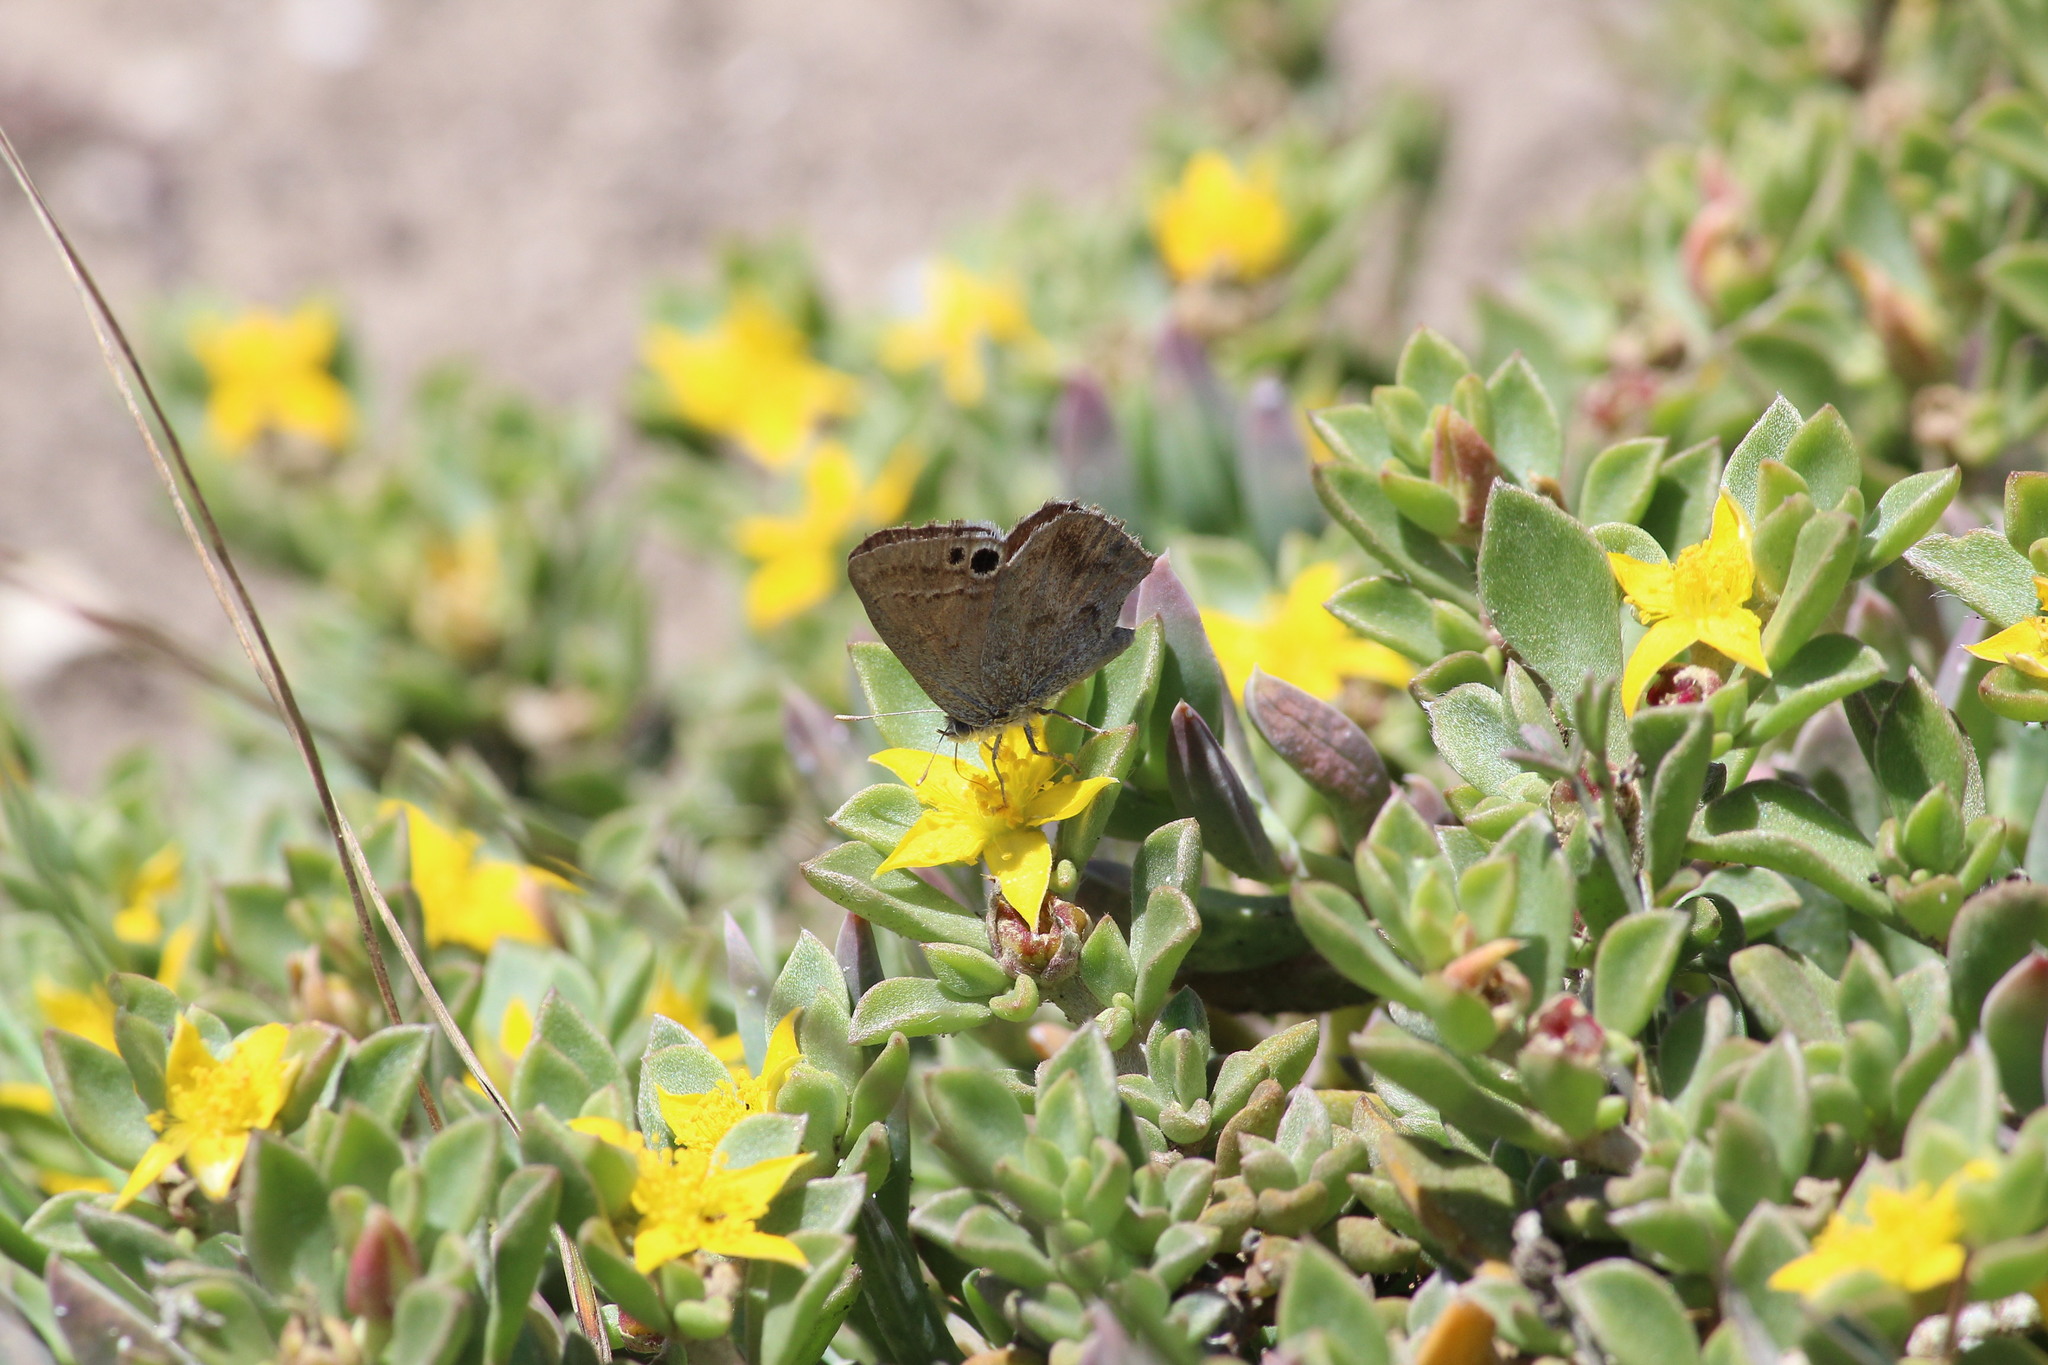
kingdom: Animalia
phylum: Arthropoda
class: Insecta
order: Lepidoptera
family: Lycaenidae
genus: Leptomyrina
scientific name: Leptomyrina lara
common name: Cape black-eye
